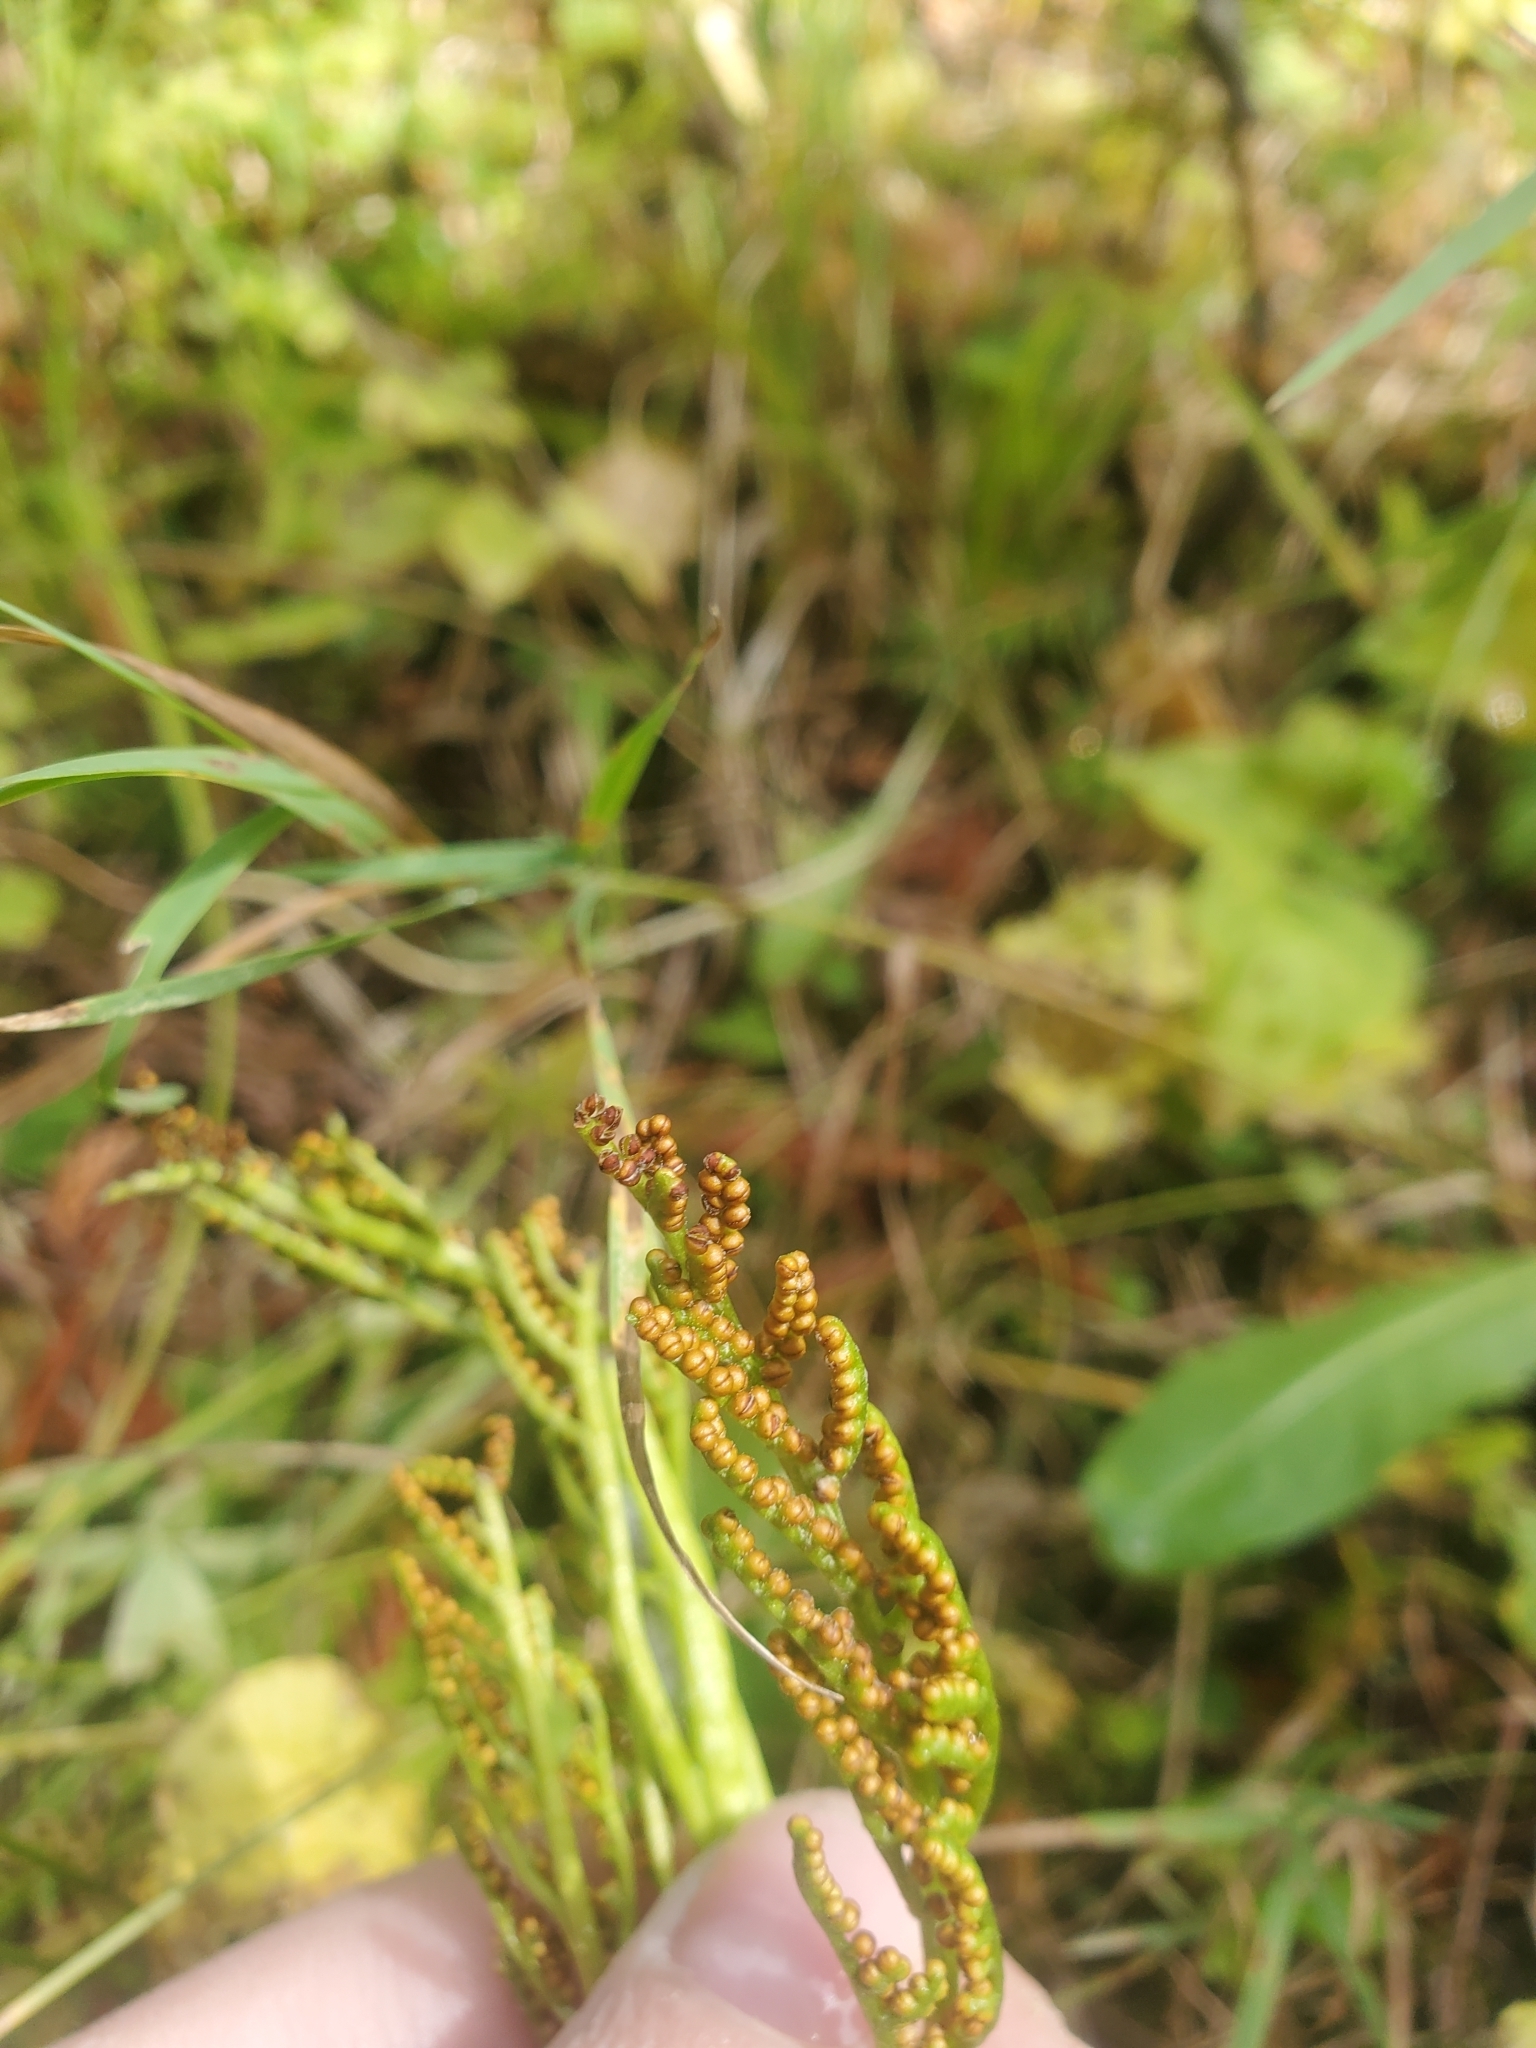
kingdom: Plantae
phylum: Tracheophyta
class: Polypodiopsida
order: Ophioglossales
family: Ophioglossaceae
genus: Sceptridium
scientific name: Sceptridium multifidum
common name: Leathery grape fern
